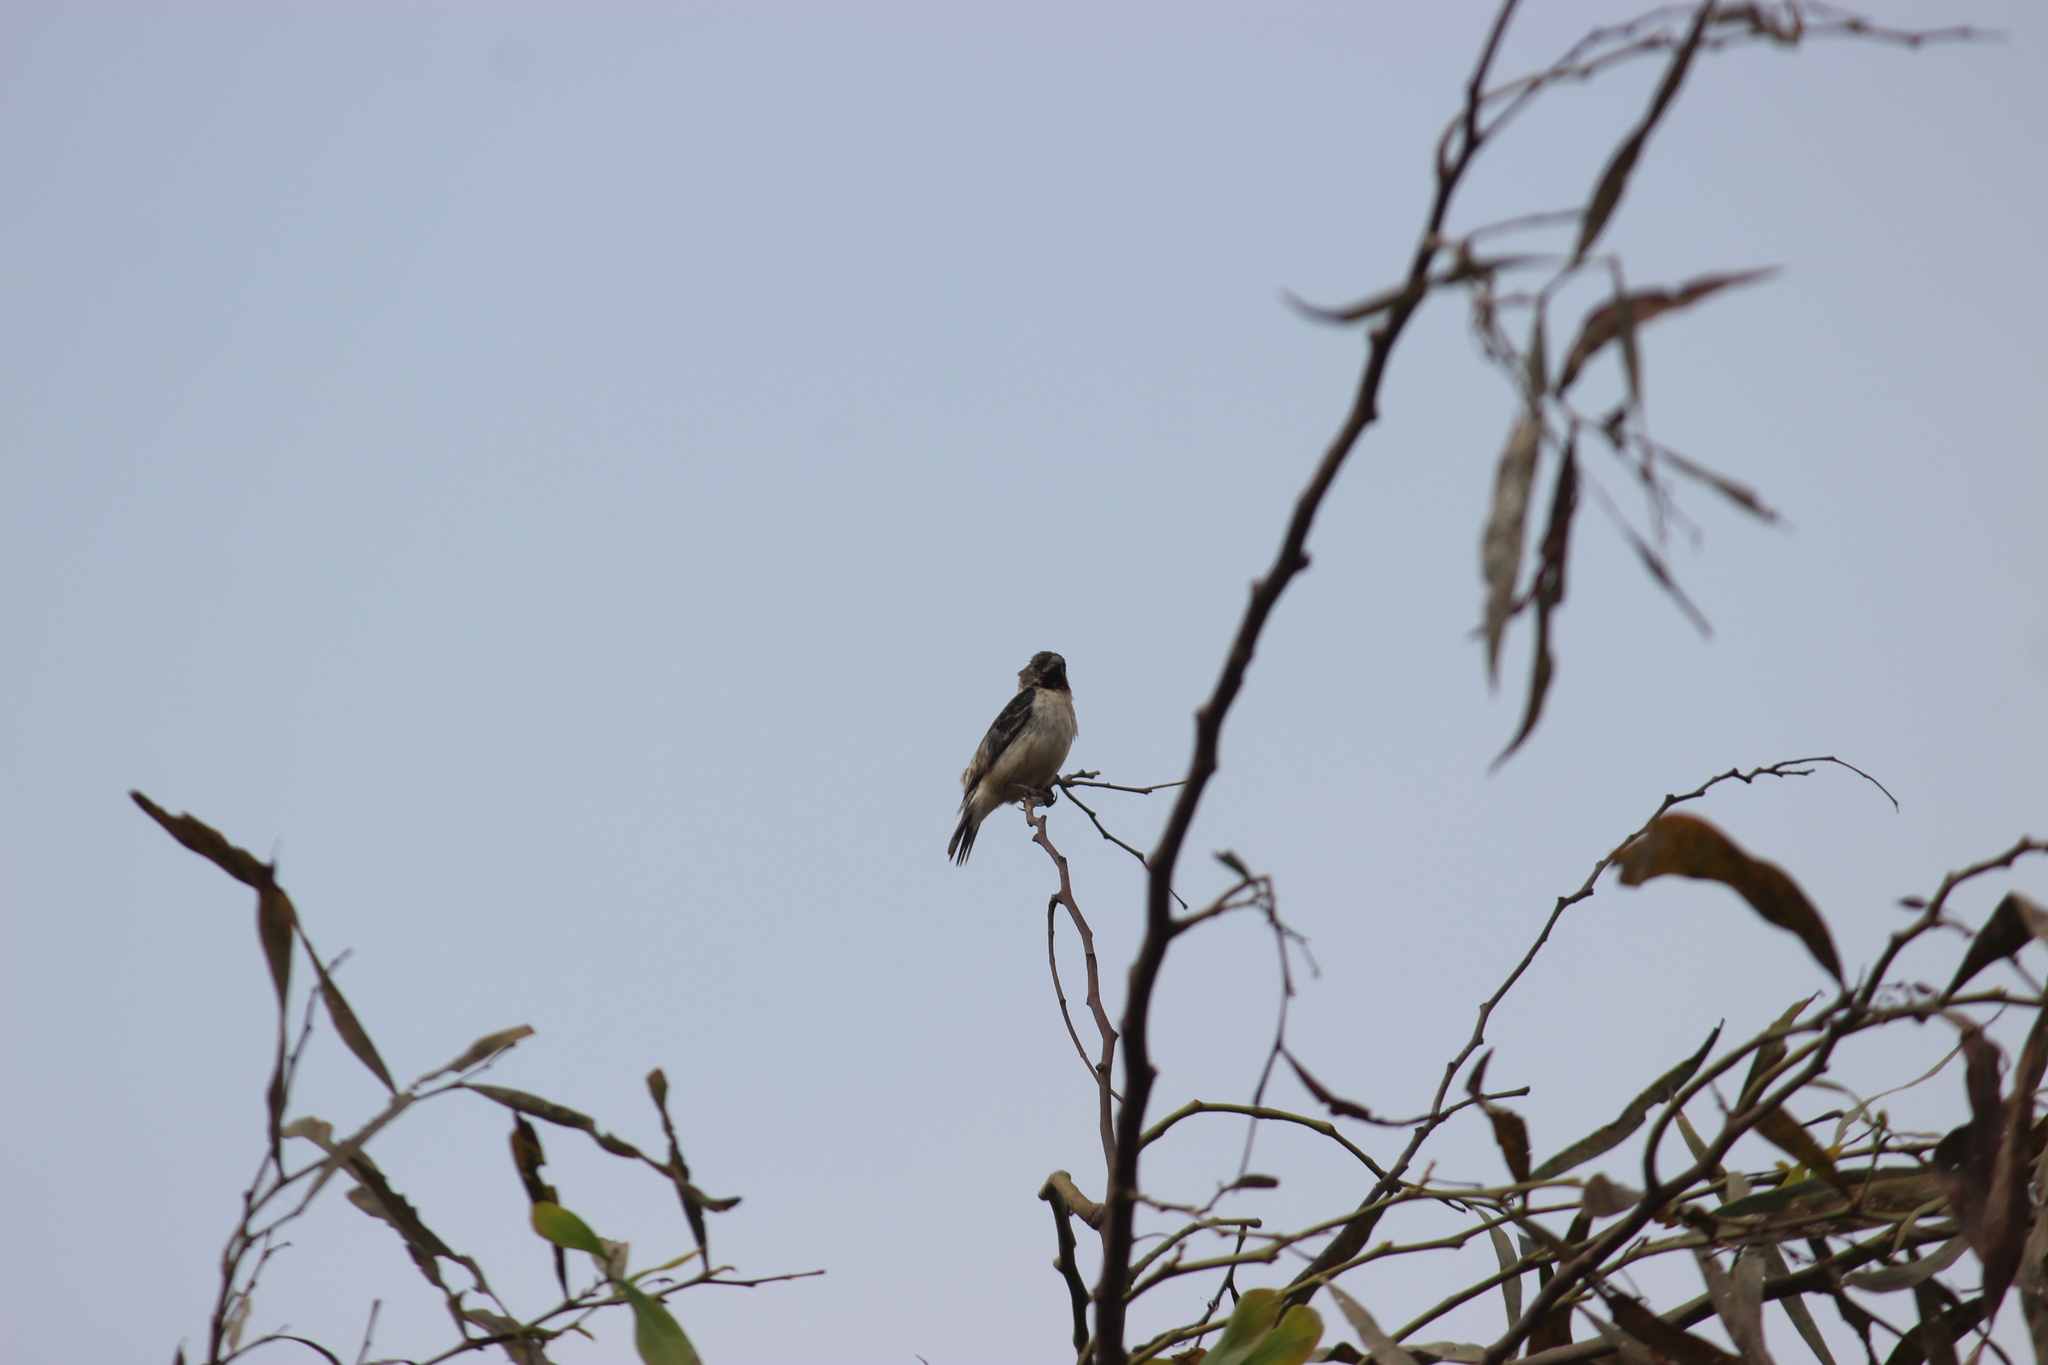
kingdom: Animalia
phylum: Chordata
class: Aves
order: Passeriformes
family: Thraupidae
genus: Sporophila
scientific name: Sporophila telasco
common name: Chestnut-throated seedeater
